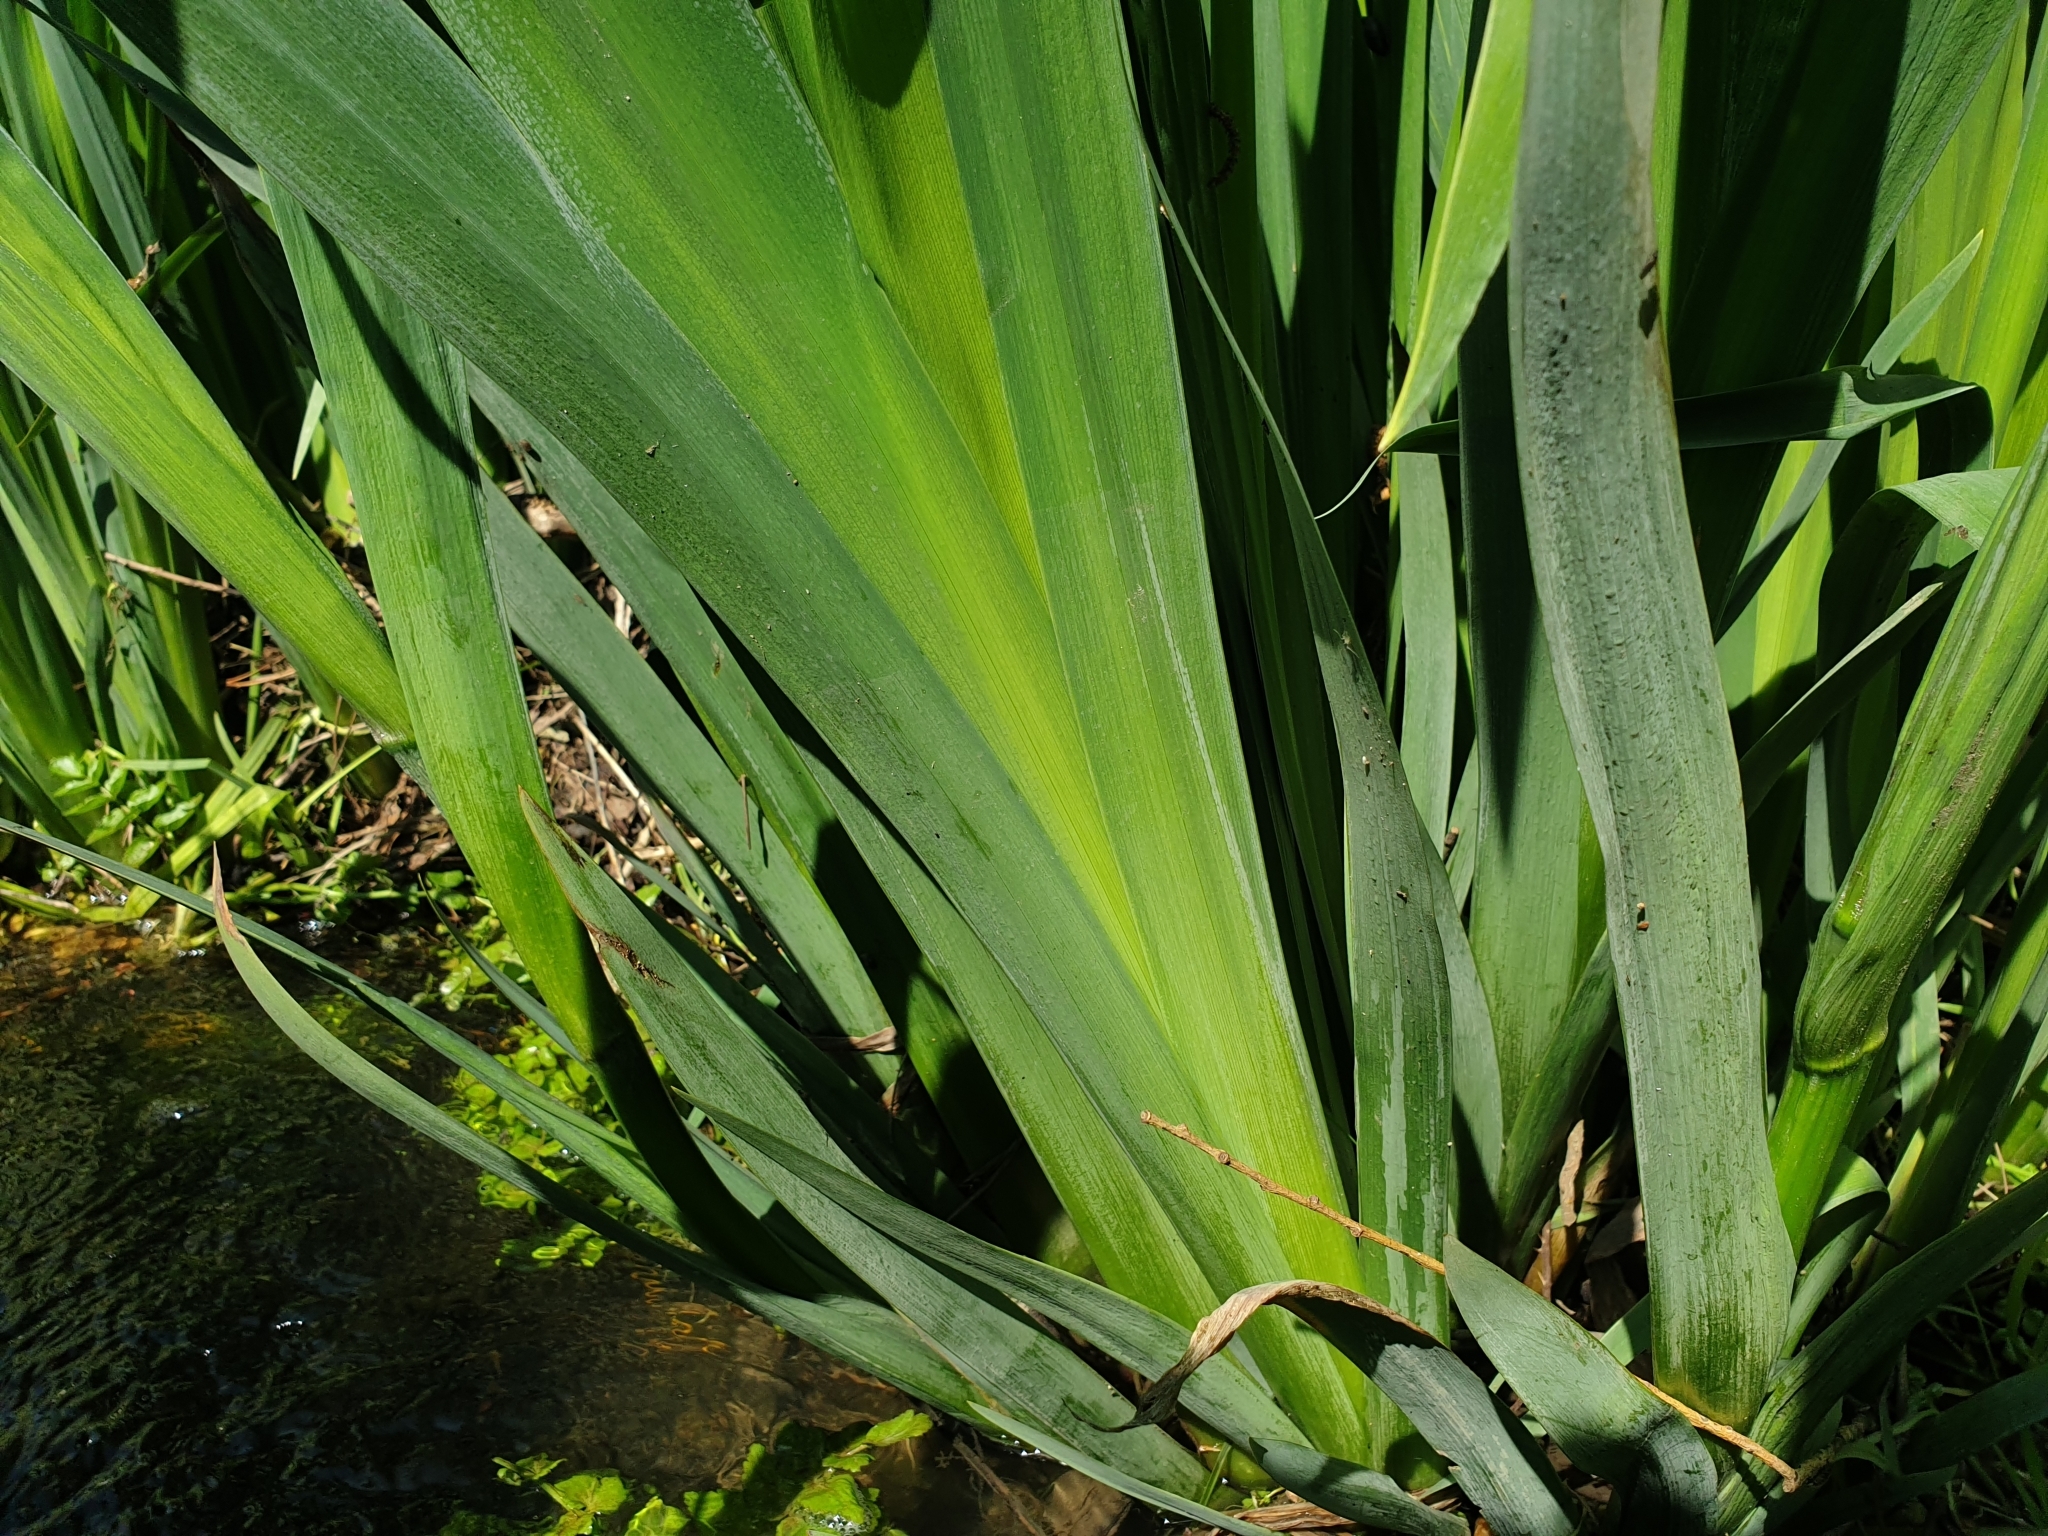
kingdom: Plantae
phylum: Tracheophyta
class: Liliopsida
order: Asparagales
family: Iridaceae
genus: Iris
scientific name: Iris pseudacorus
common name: Yellow flag
